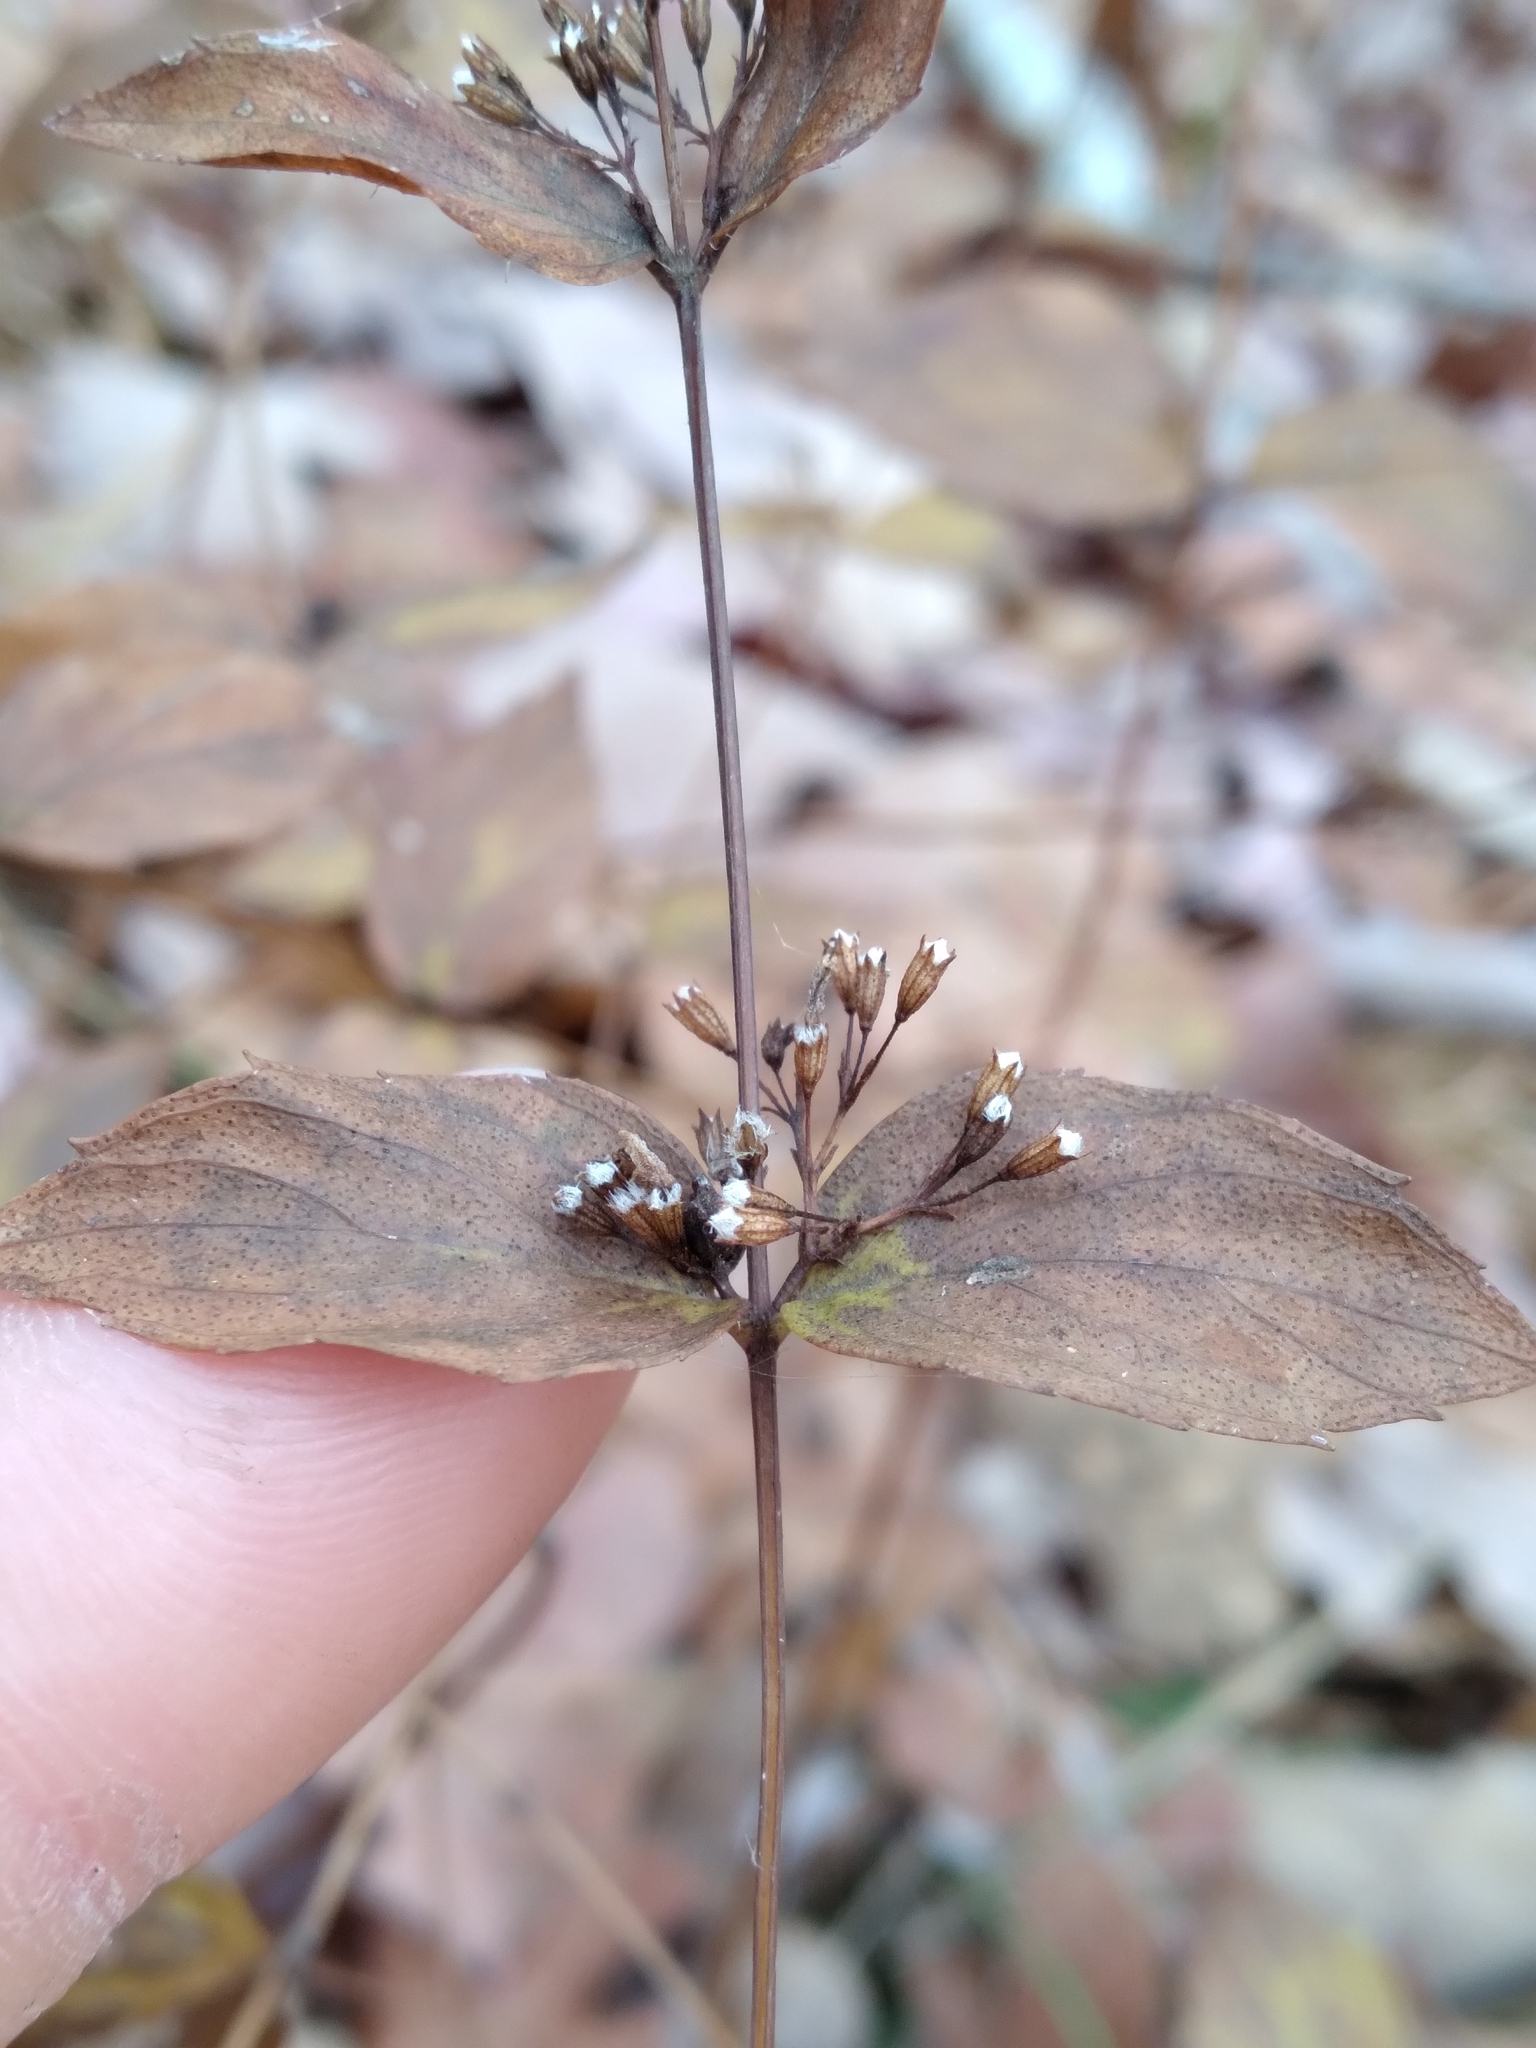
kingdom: Plantae
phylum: Tracheophyta
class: Magnoliopsida
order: Lamiales
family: Lamiaceae
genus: Cunila
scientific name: Cunila origanoides
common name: American dittany
